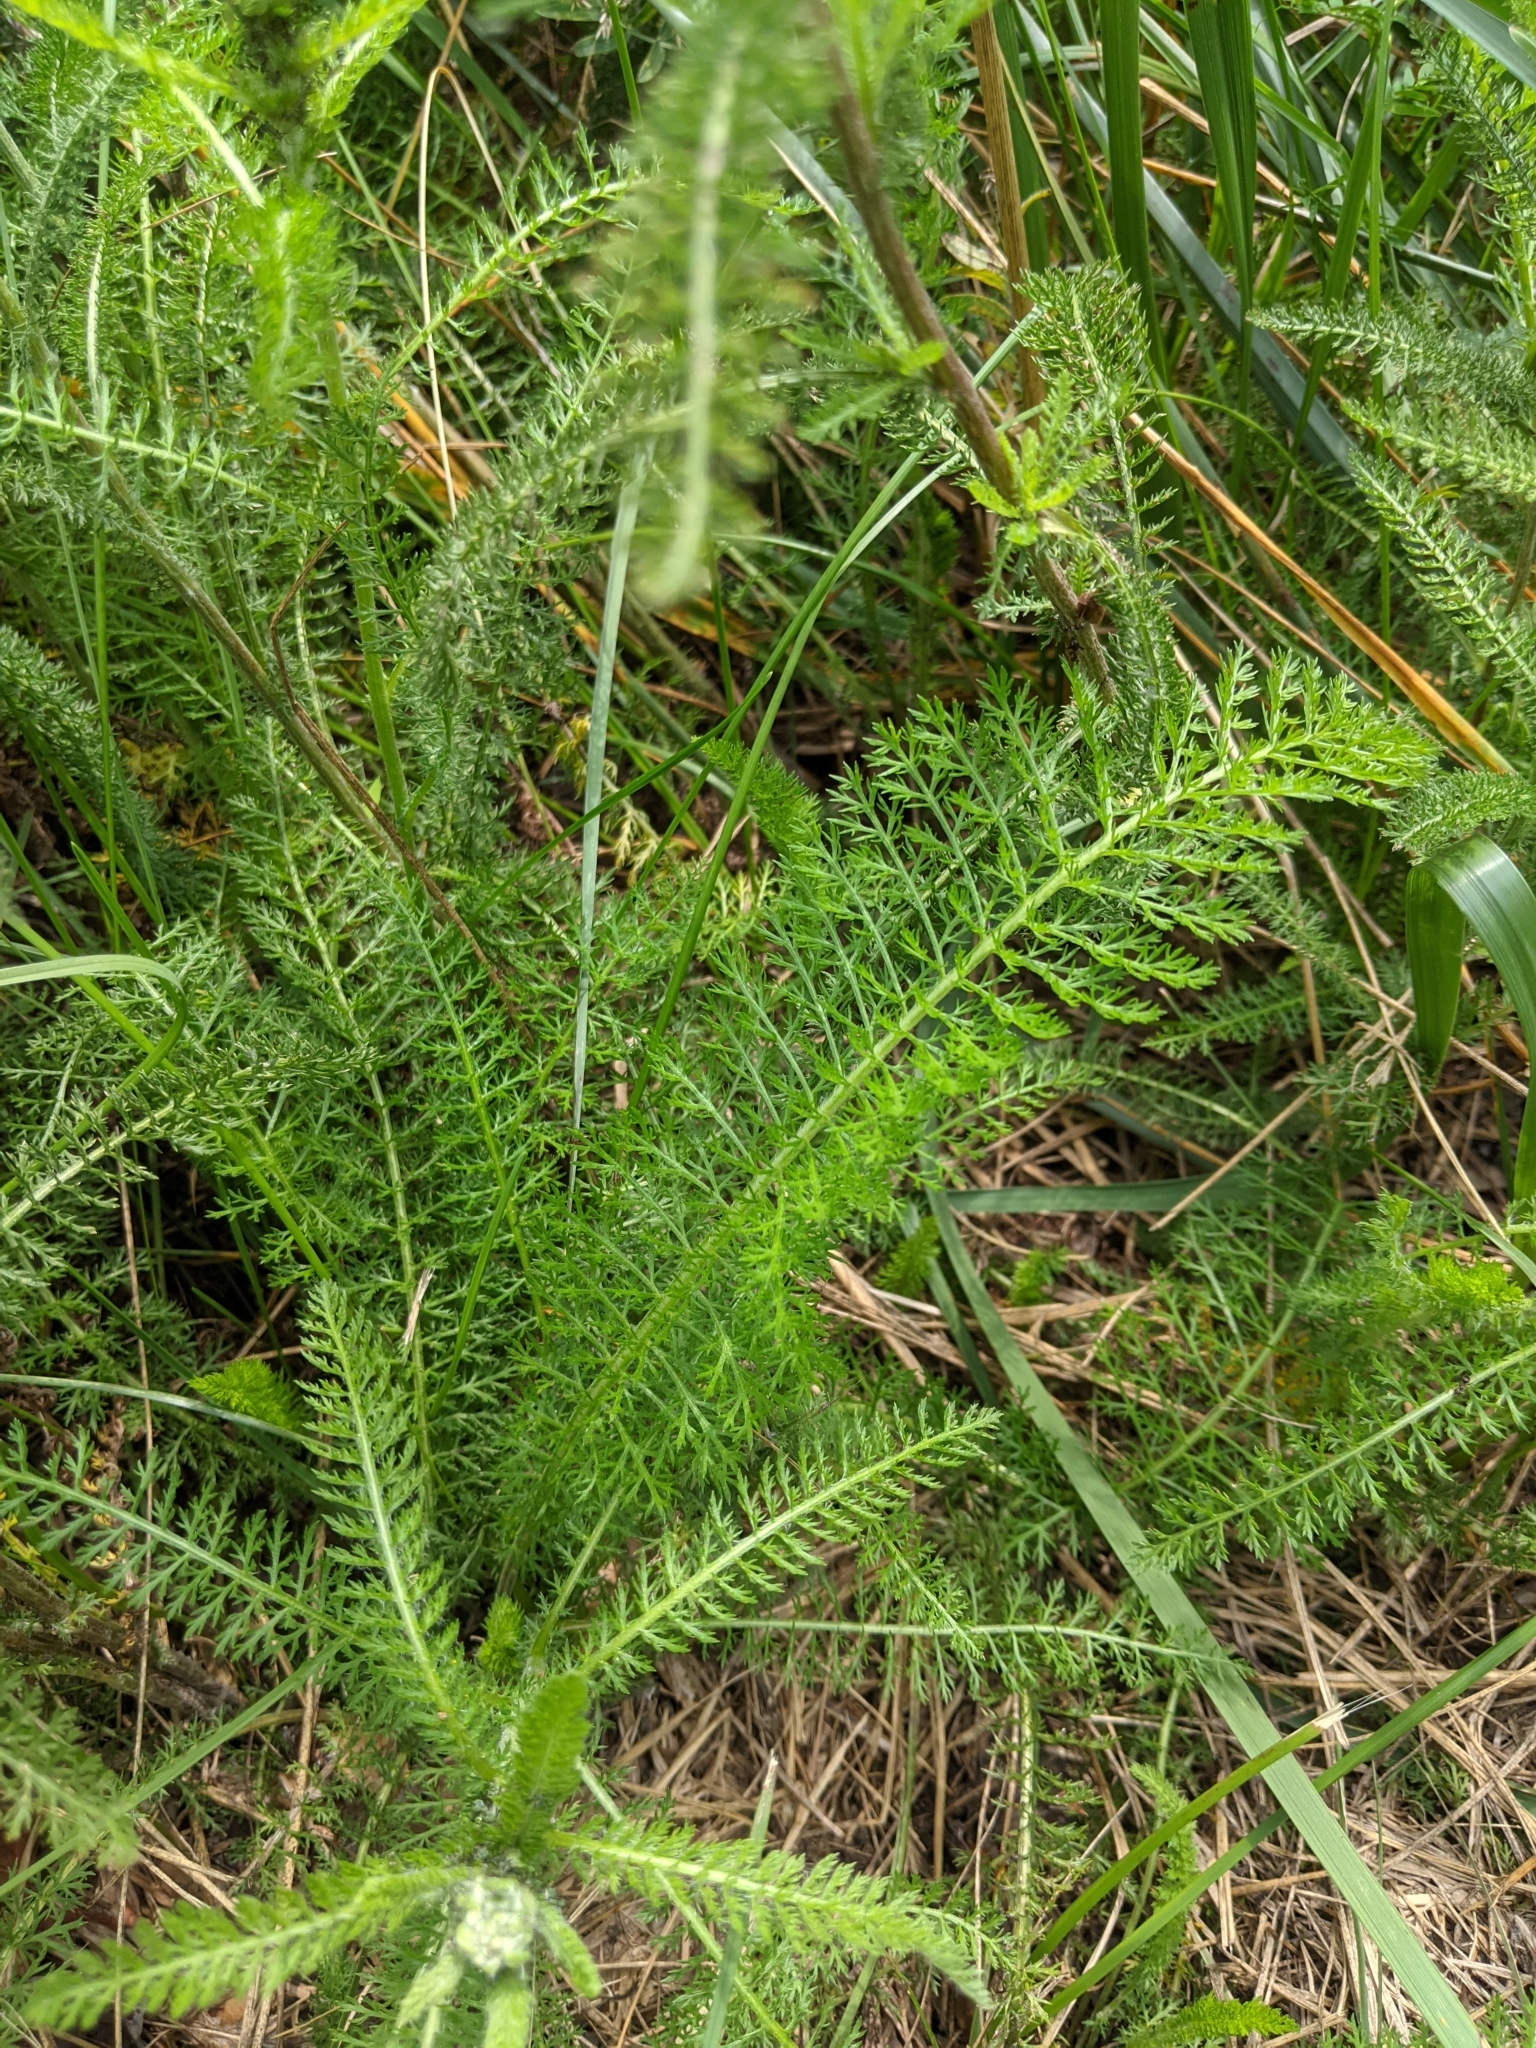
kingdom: Plantae
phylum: Tracheophyta
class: Magnoliopsida
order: Asterales
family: Asteraceae
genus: Achillea
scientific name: Achillea millefolium
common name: Yarrow
